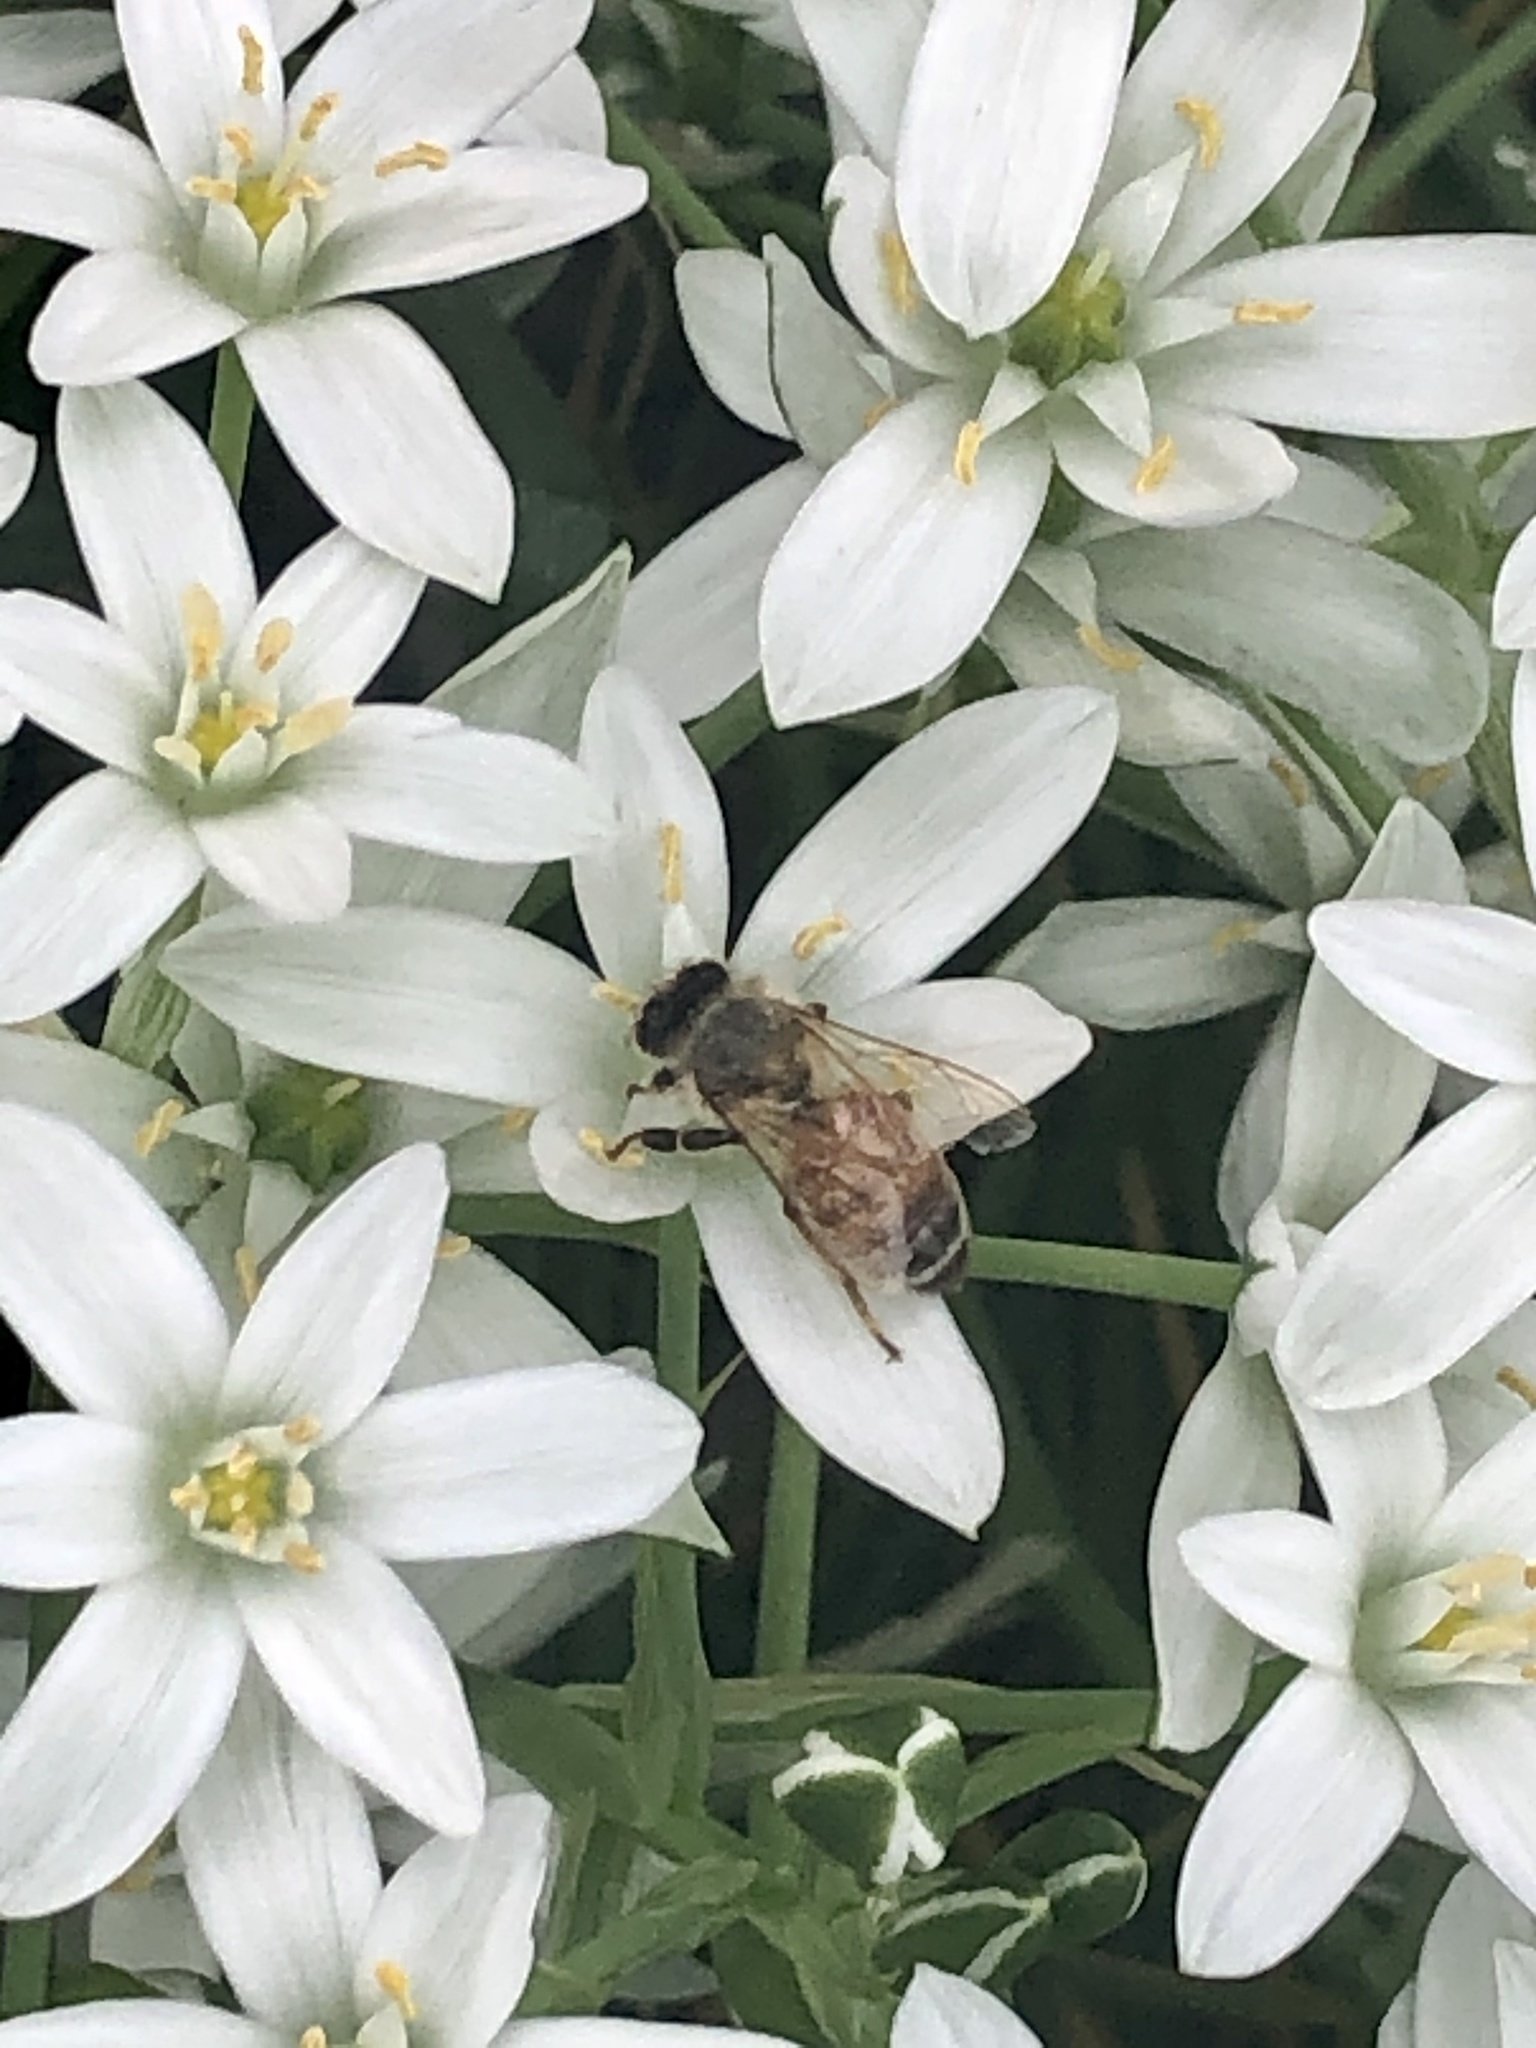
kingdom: Animalia
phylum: Arthropoda
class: Insecta
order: Hymenoptera
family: Apidae
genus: Apis
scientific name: Apis mellifera
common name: Honey bee
